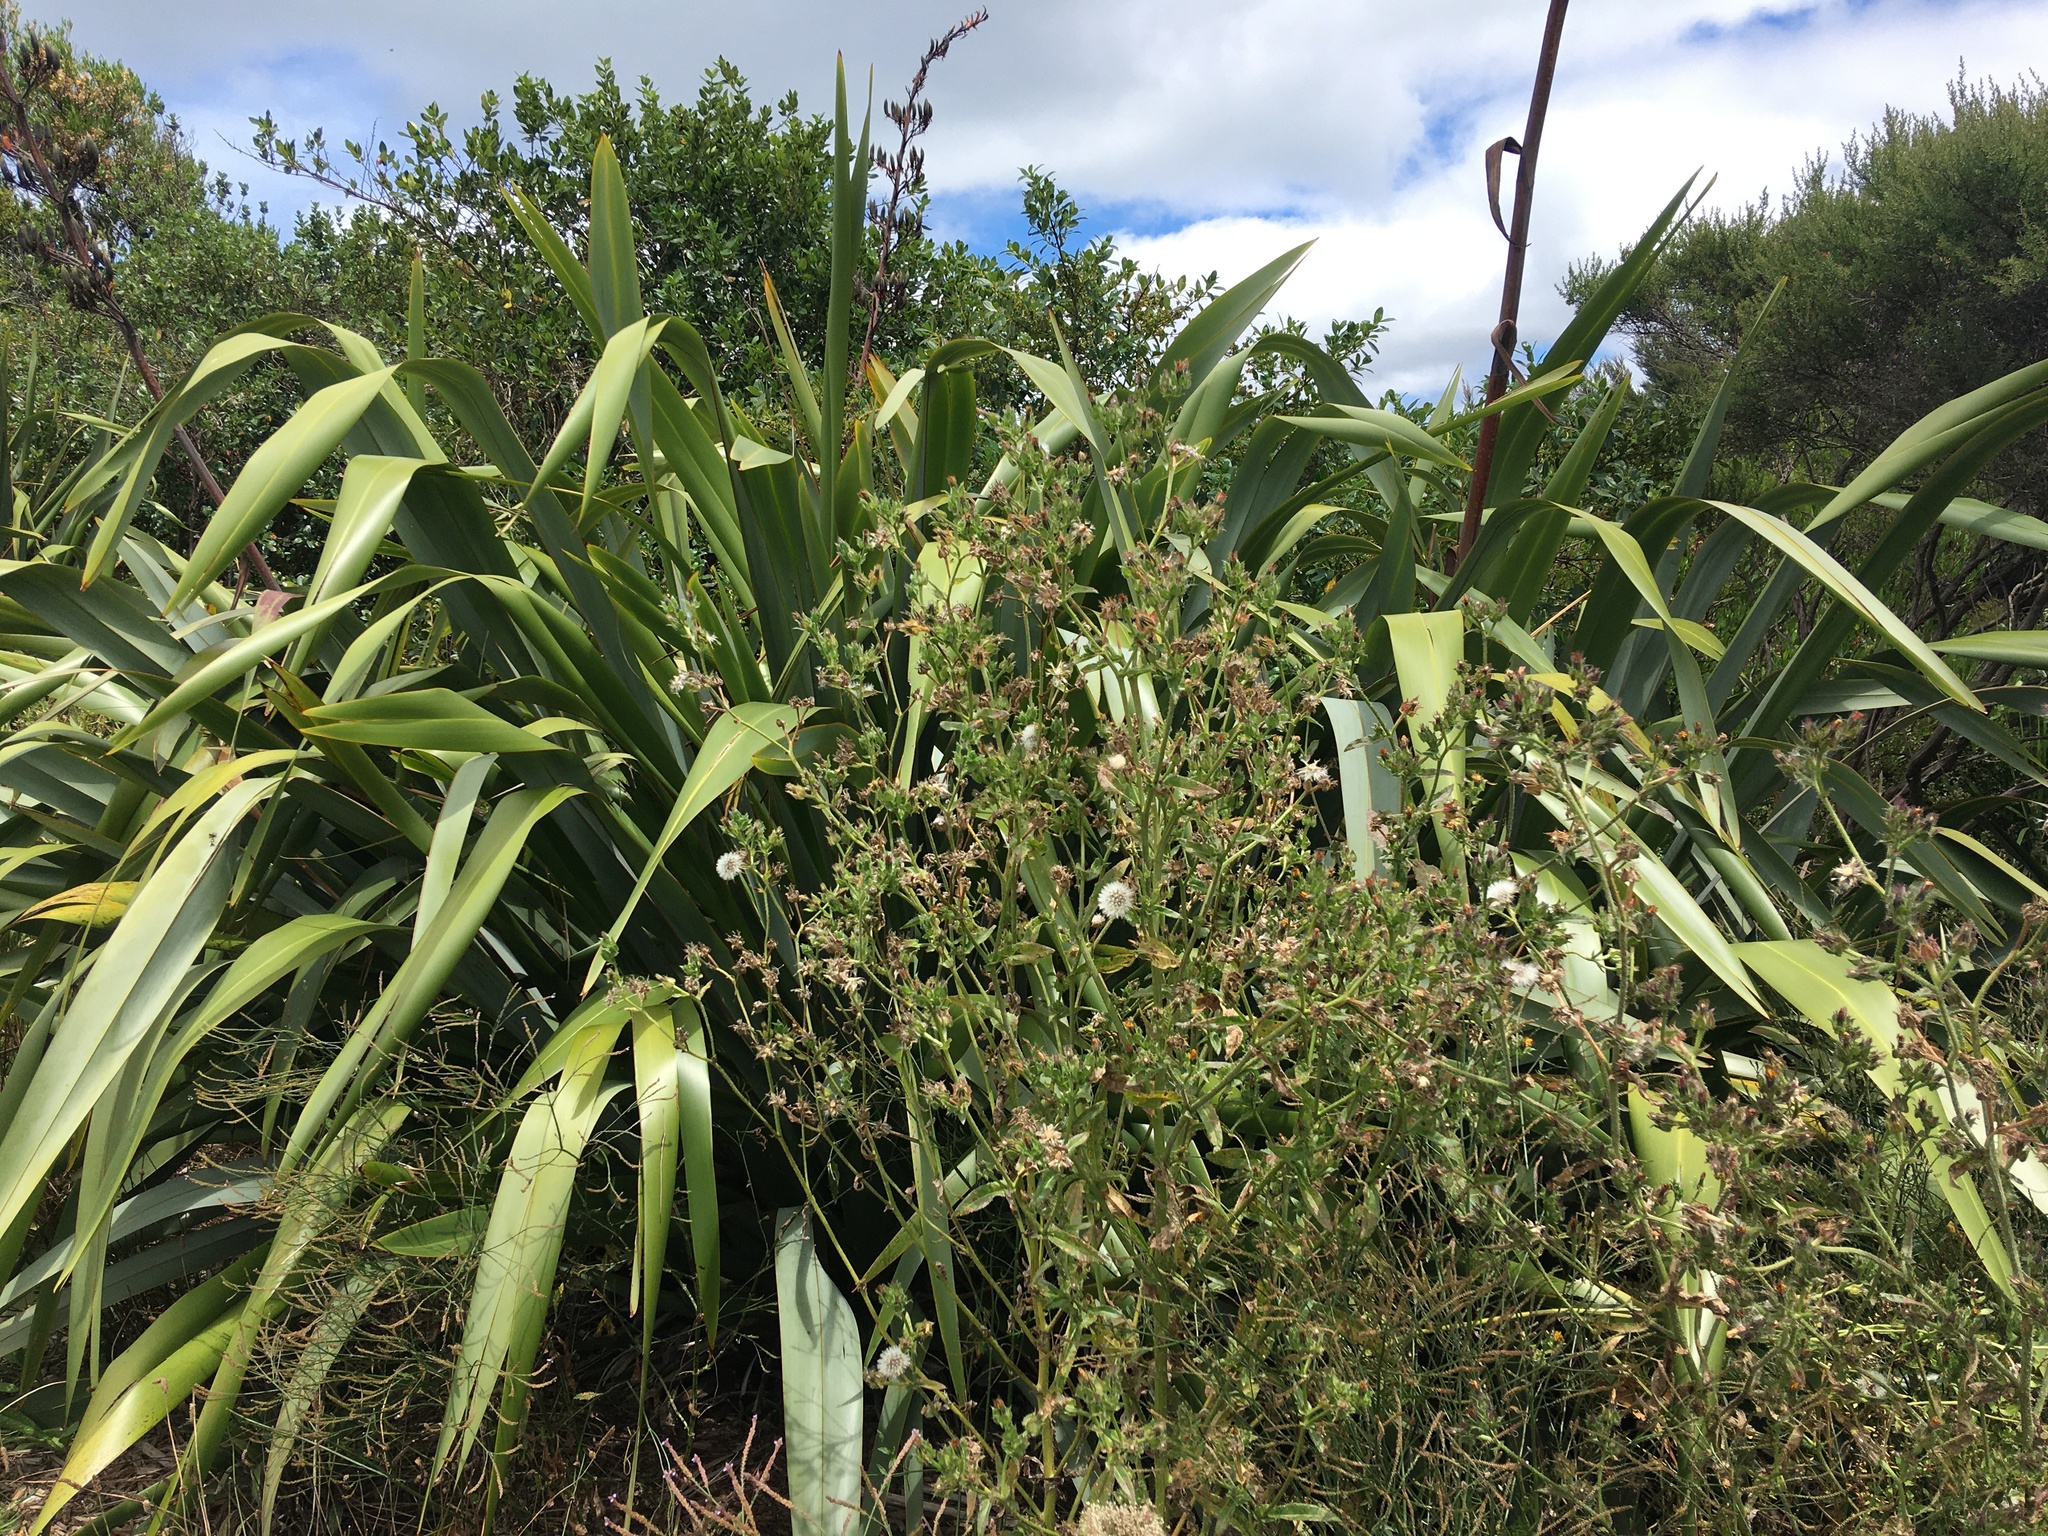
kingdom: Plantae
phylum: Tracheophyta
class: Magnoliopsida
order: Lamiales
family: Verbenaceae
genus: Verbena
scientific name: Verbena litoralis
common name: Seashore vervain
